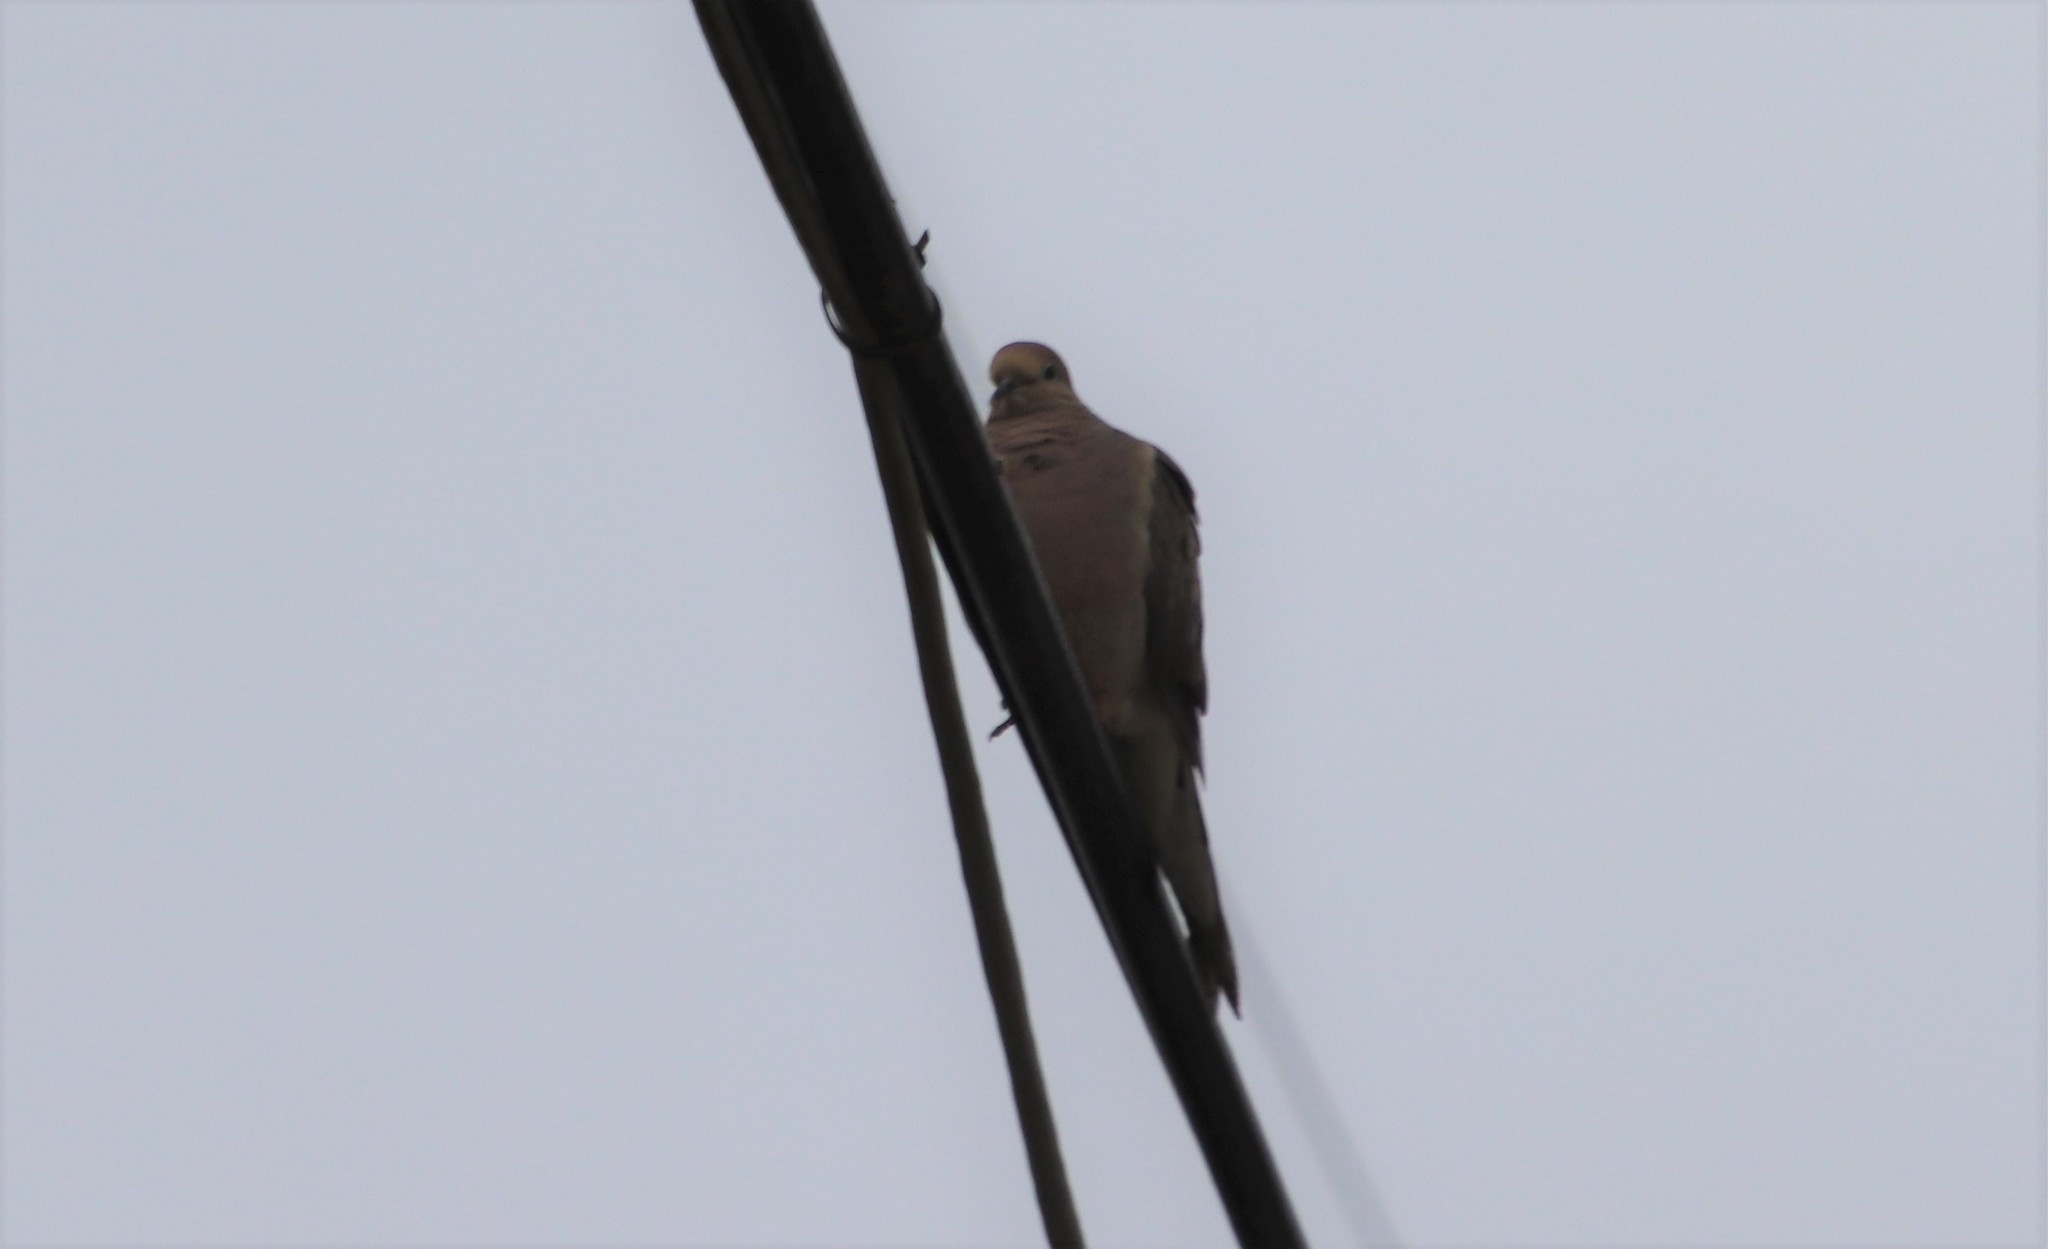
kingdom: Animalia
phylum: Chordata
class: Aves
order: Columbiformes
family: Columbidae
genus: Zenaida
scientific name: Zenaida macroura
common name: Mourning dove
